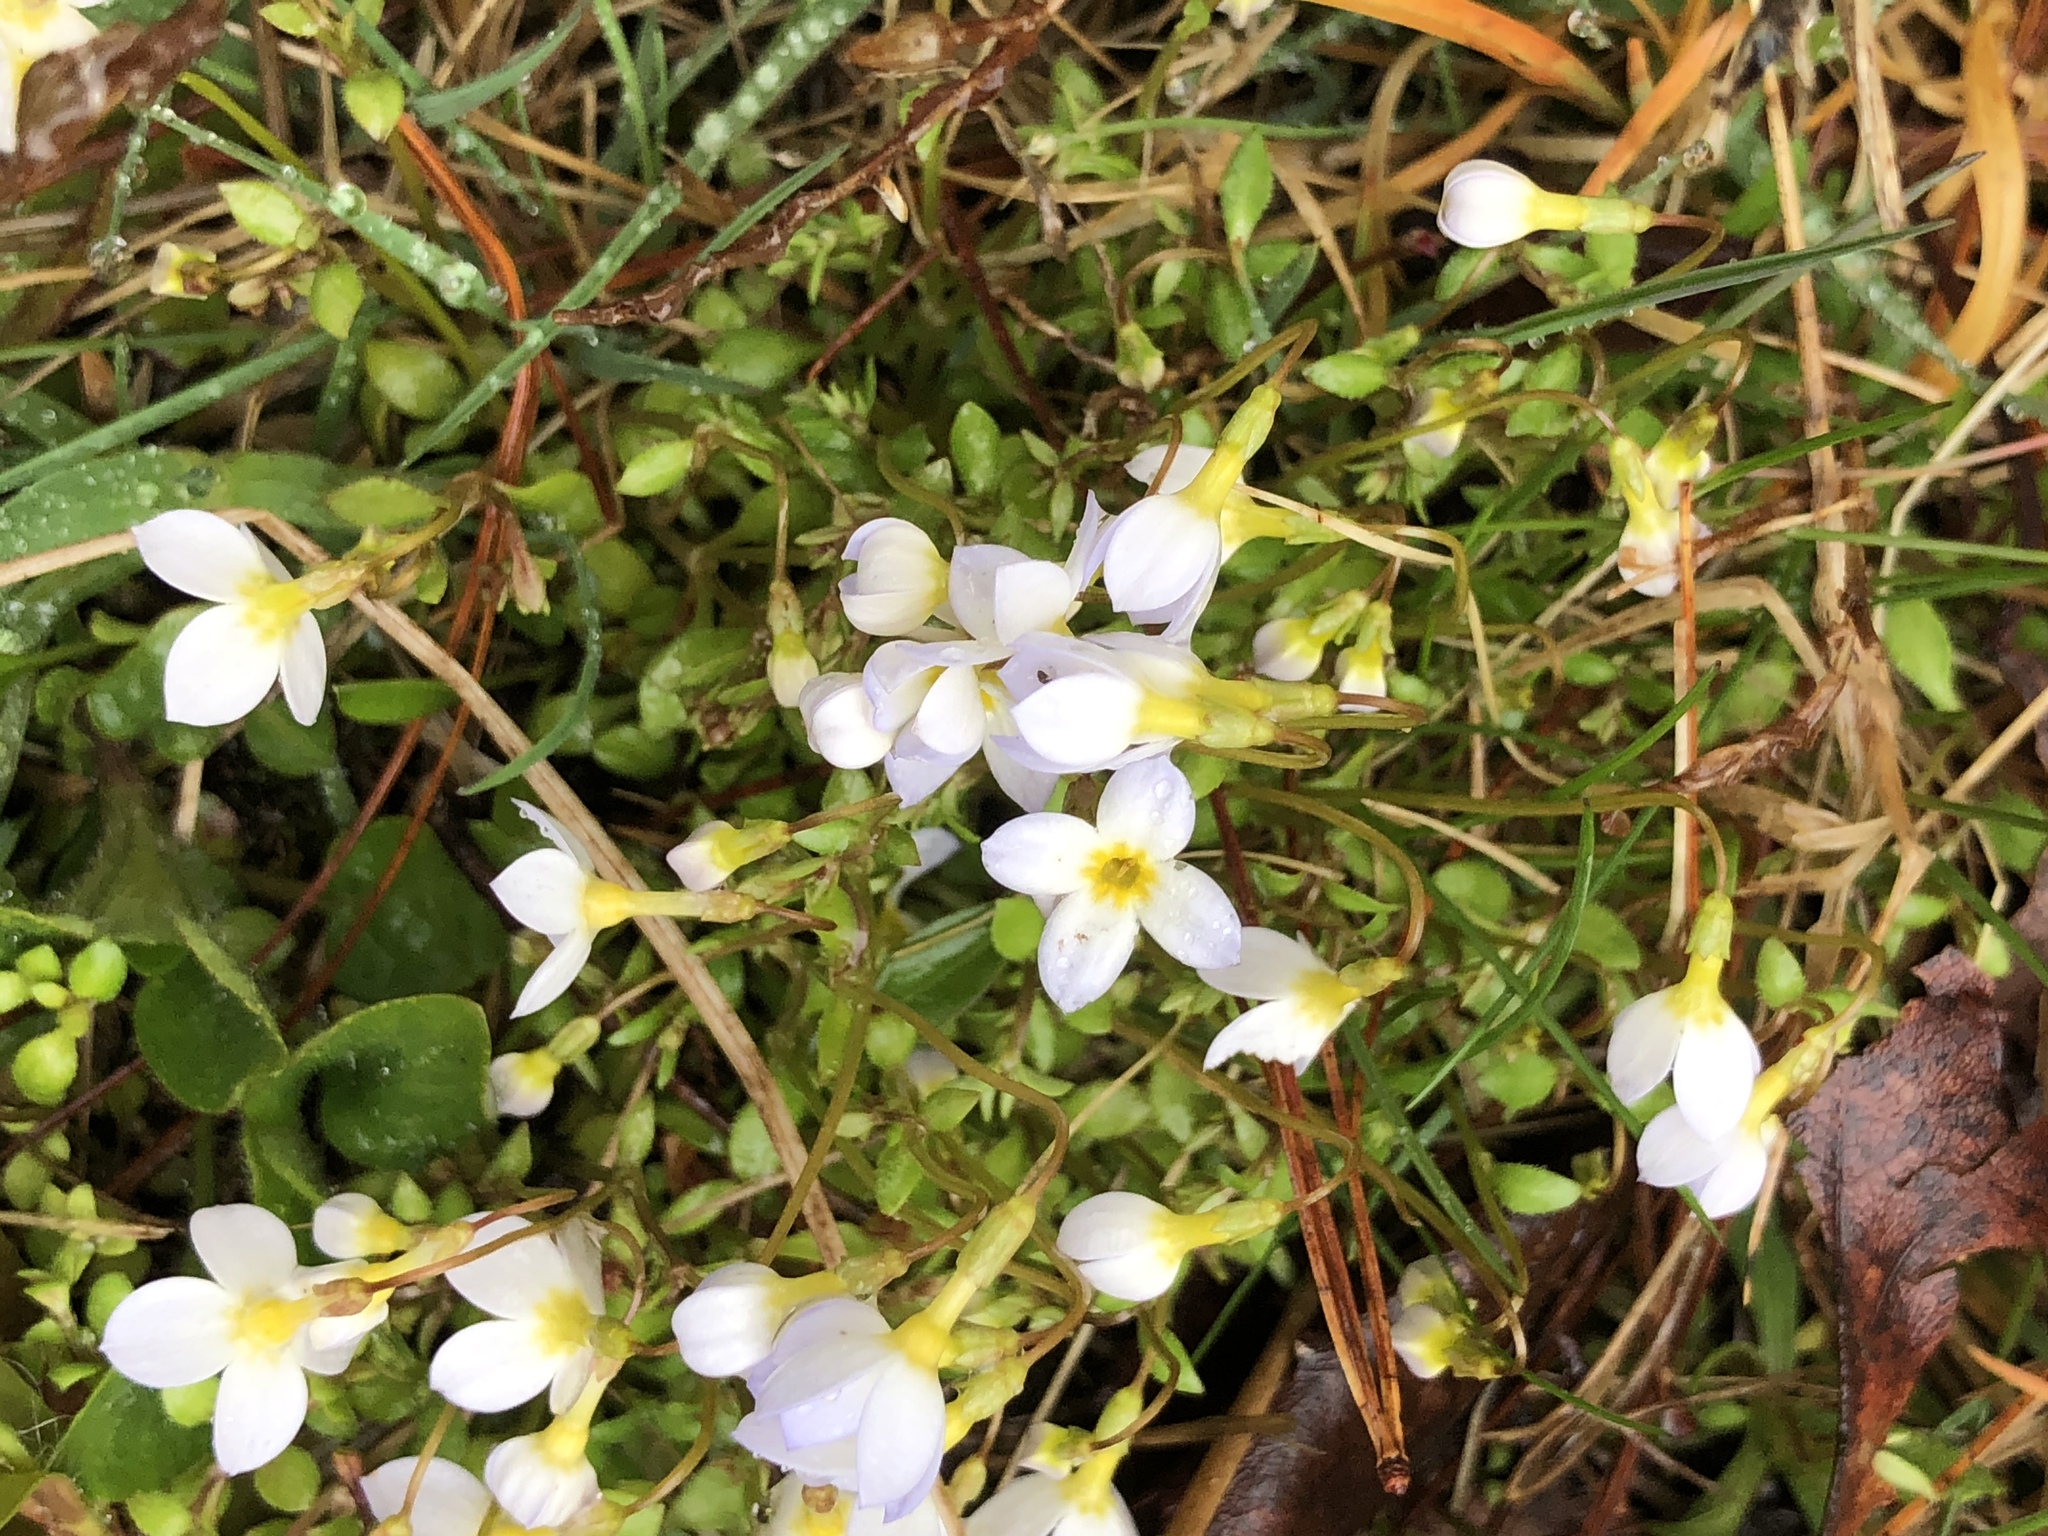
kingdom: Plantae
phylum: Tracheophyta
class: Magnoliopsida
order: Gentianales
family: Rubiaceae
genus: Houstonia
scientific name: Houstonia caerulea
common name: Bluets
